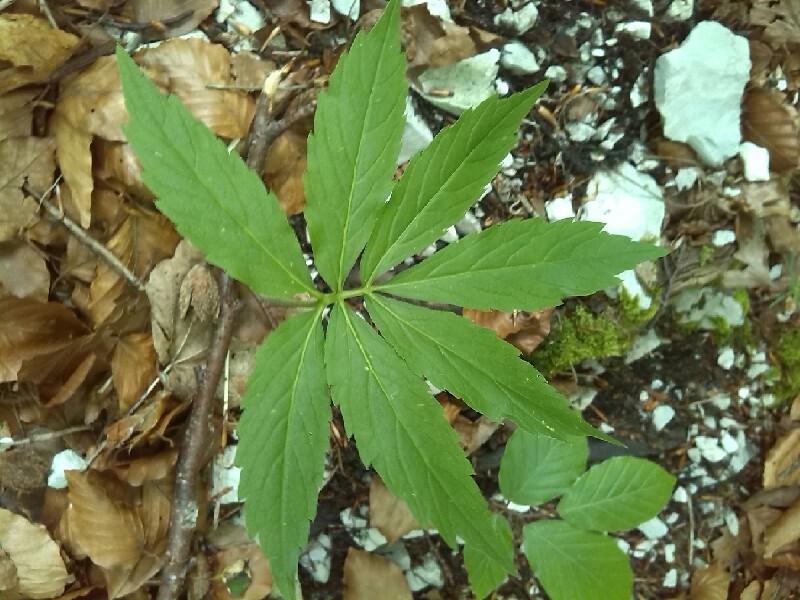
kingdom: Plantae
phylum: Tracheophyta
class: Magnoliopsida
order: Brassicales
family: Brassicaceae
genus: Cardamine
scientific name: Cardamine heptaphylla
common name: Pinnate coralroot
